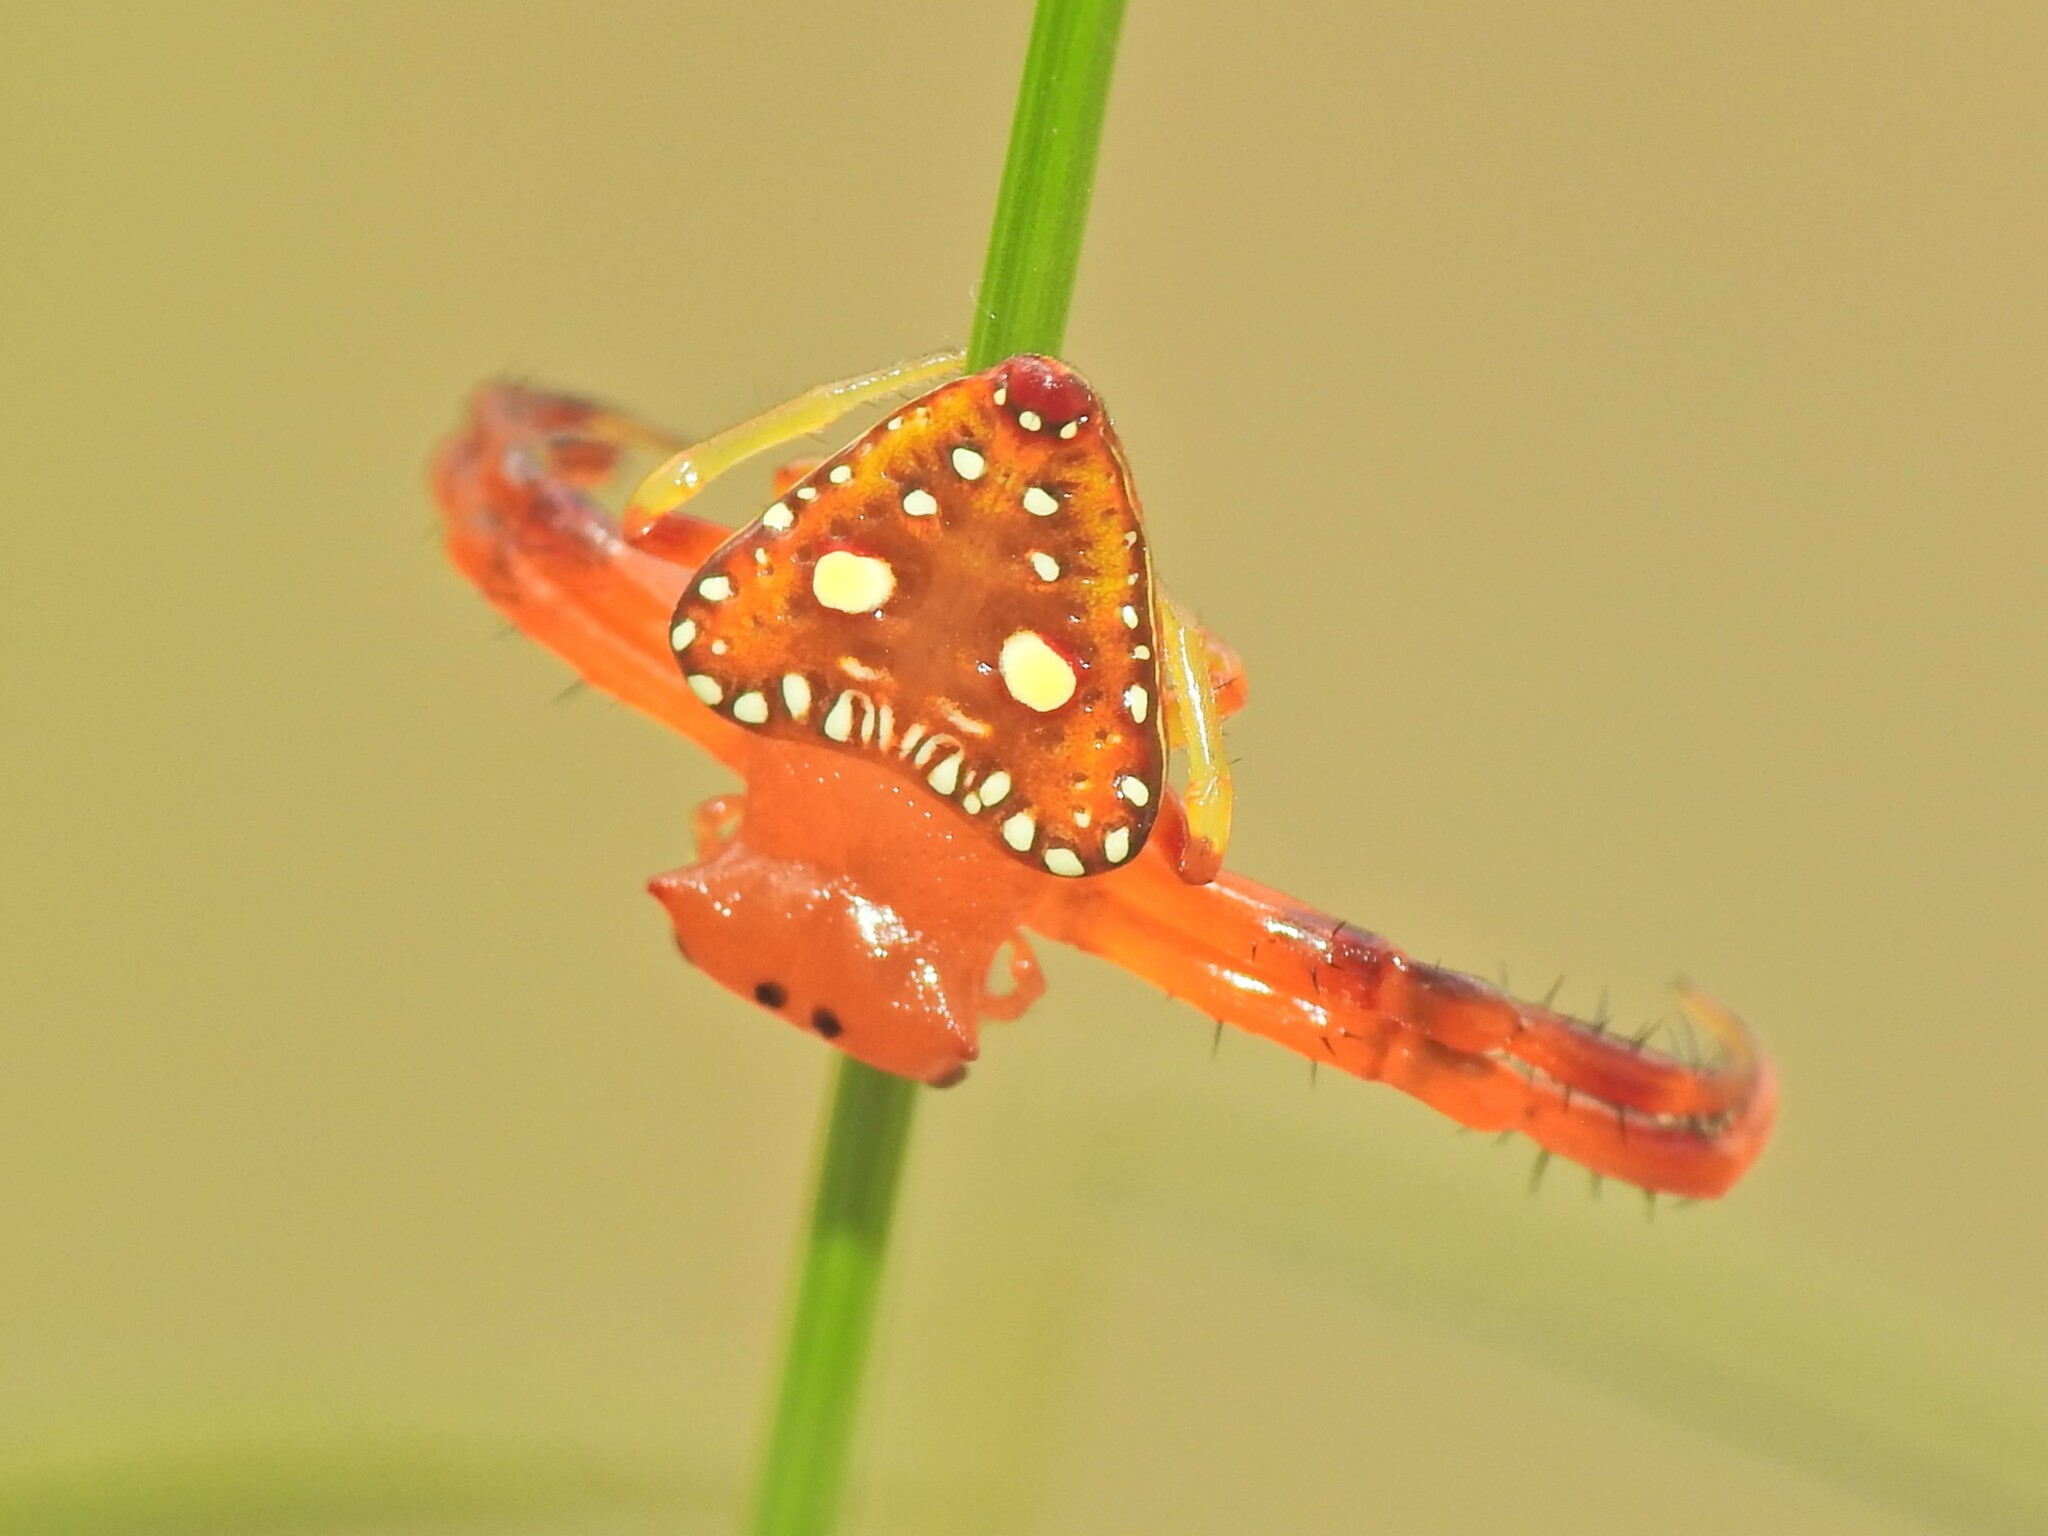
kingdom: Animalia
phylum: Arthropoda
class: Arachnida
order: Araneae
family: Arkyidae
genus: Arkys
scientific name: Arkys lancearius
